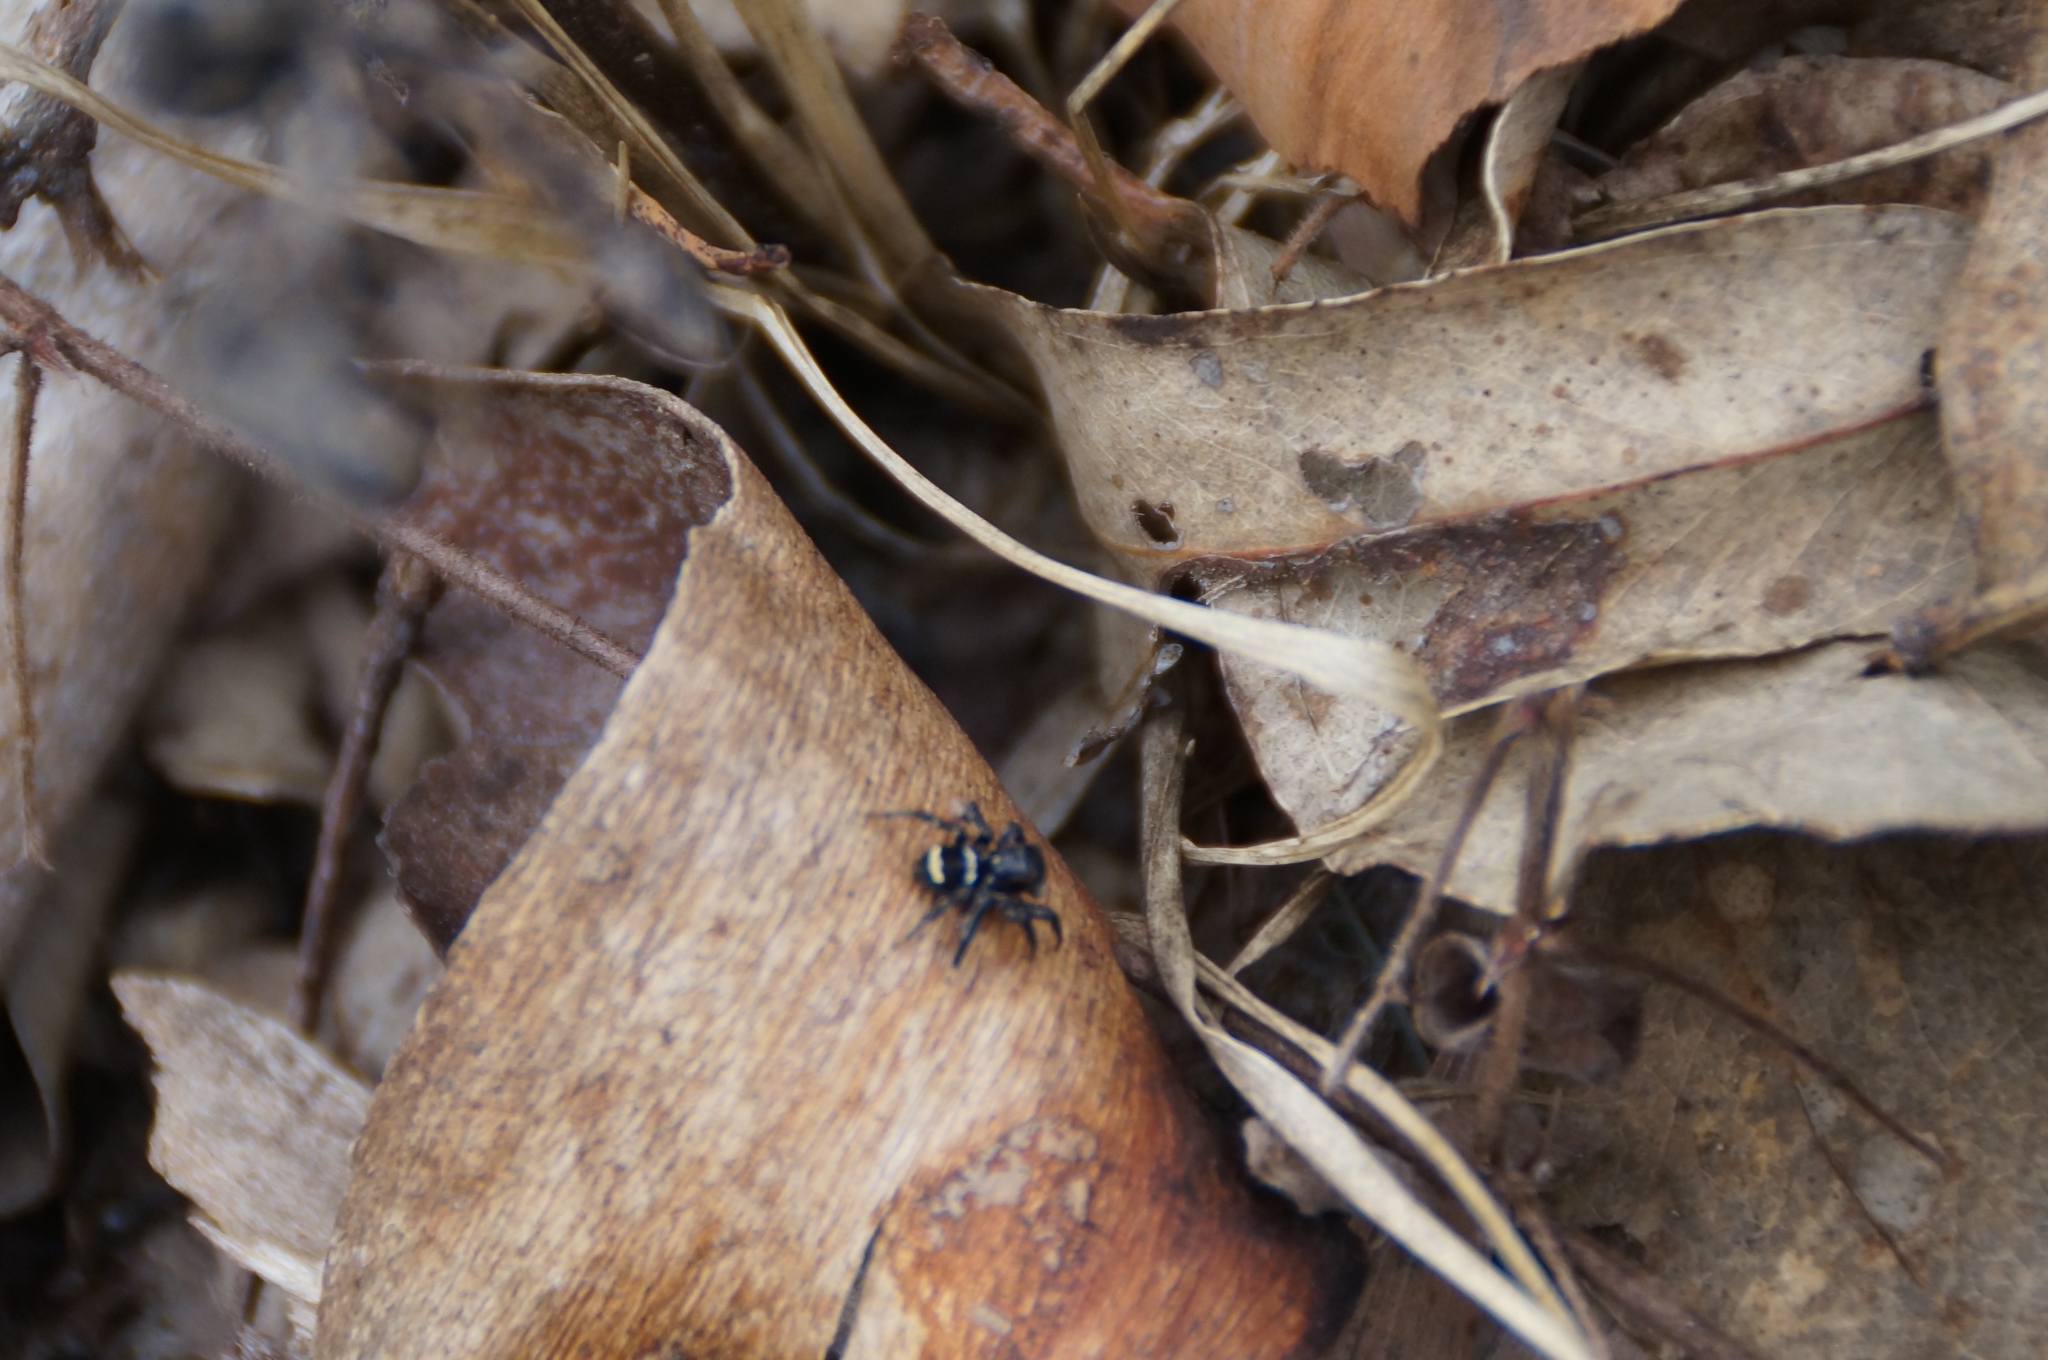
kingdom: Animalia
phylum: Arthropoda
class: Arachnida
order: Araneae
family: Salticidae
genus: Saitis
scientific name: Saitis virgatus
